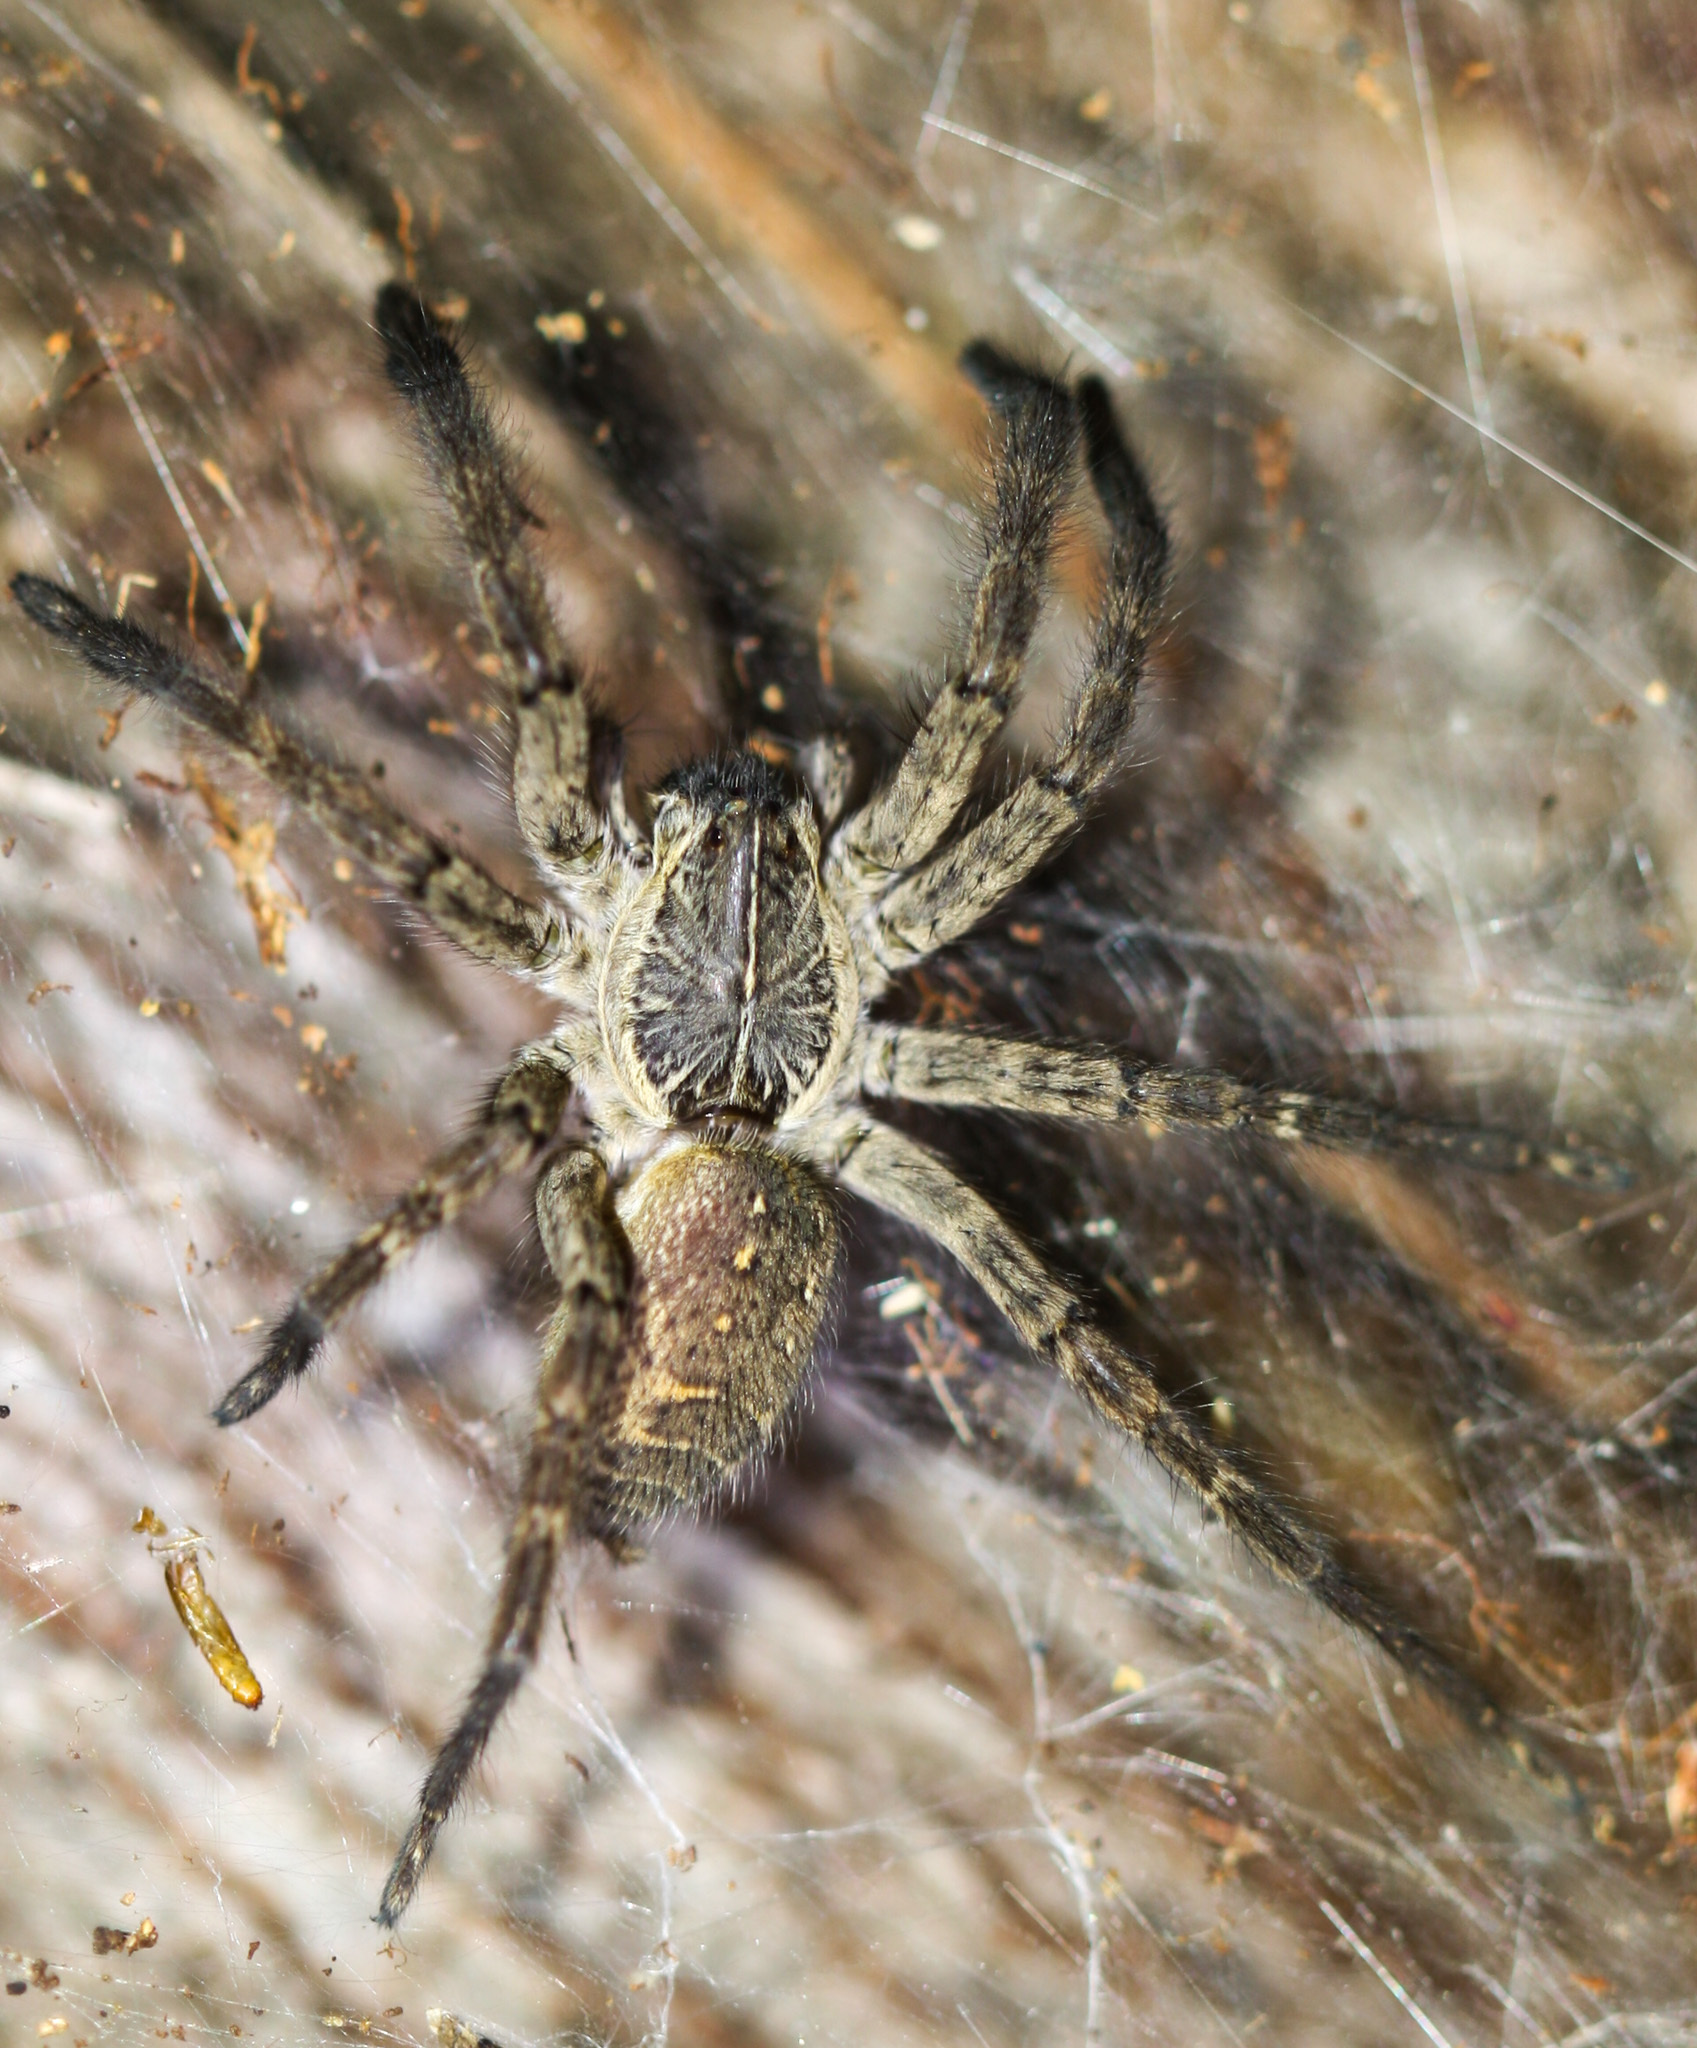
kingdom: Animalia
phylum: Arthropoda
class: Arachnida
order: Araneae
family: Lycosidae
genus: Sosippus
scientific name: Sosippus agalenoides
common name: Wolf spiders
